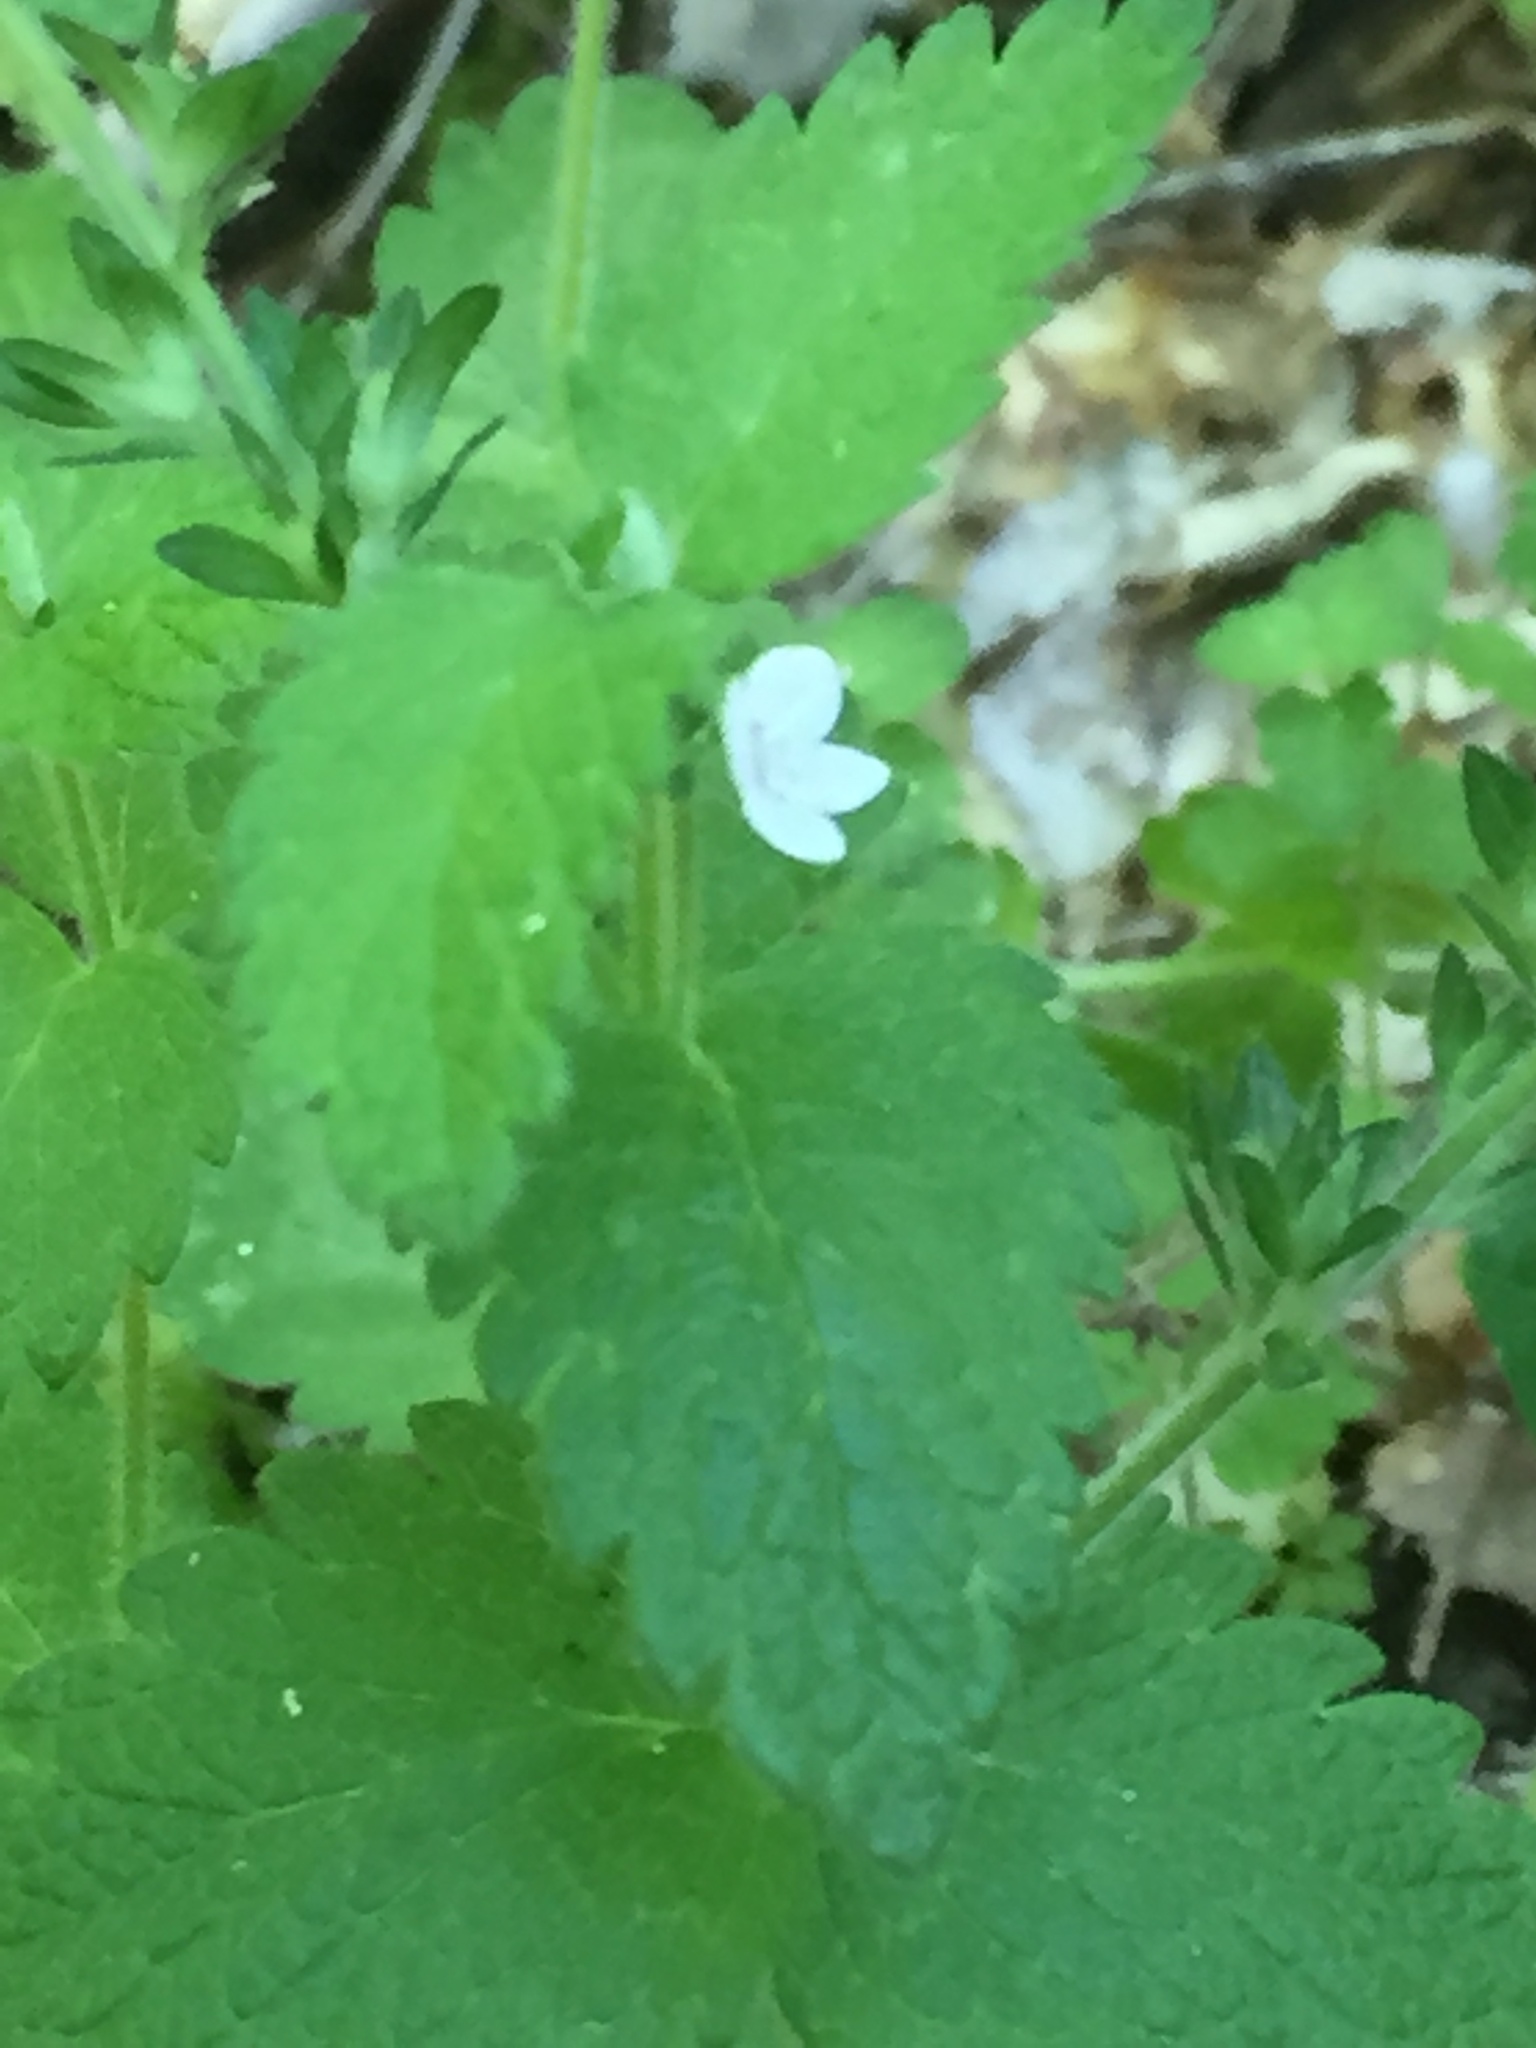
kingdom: Plantae
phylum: Tracheophyta
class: Magnoliopsida
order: Lamiales
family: Plantaginaceae
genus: Veronica
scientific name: Veronica micrantha
